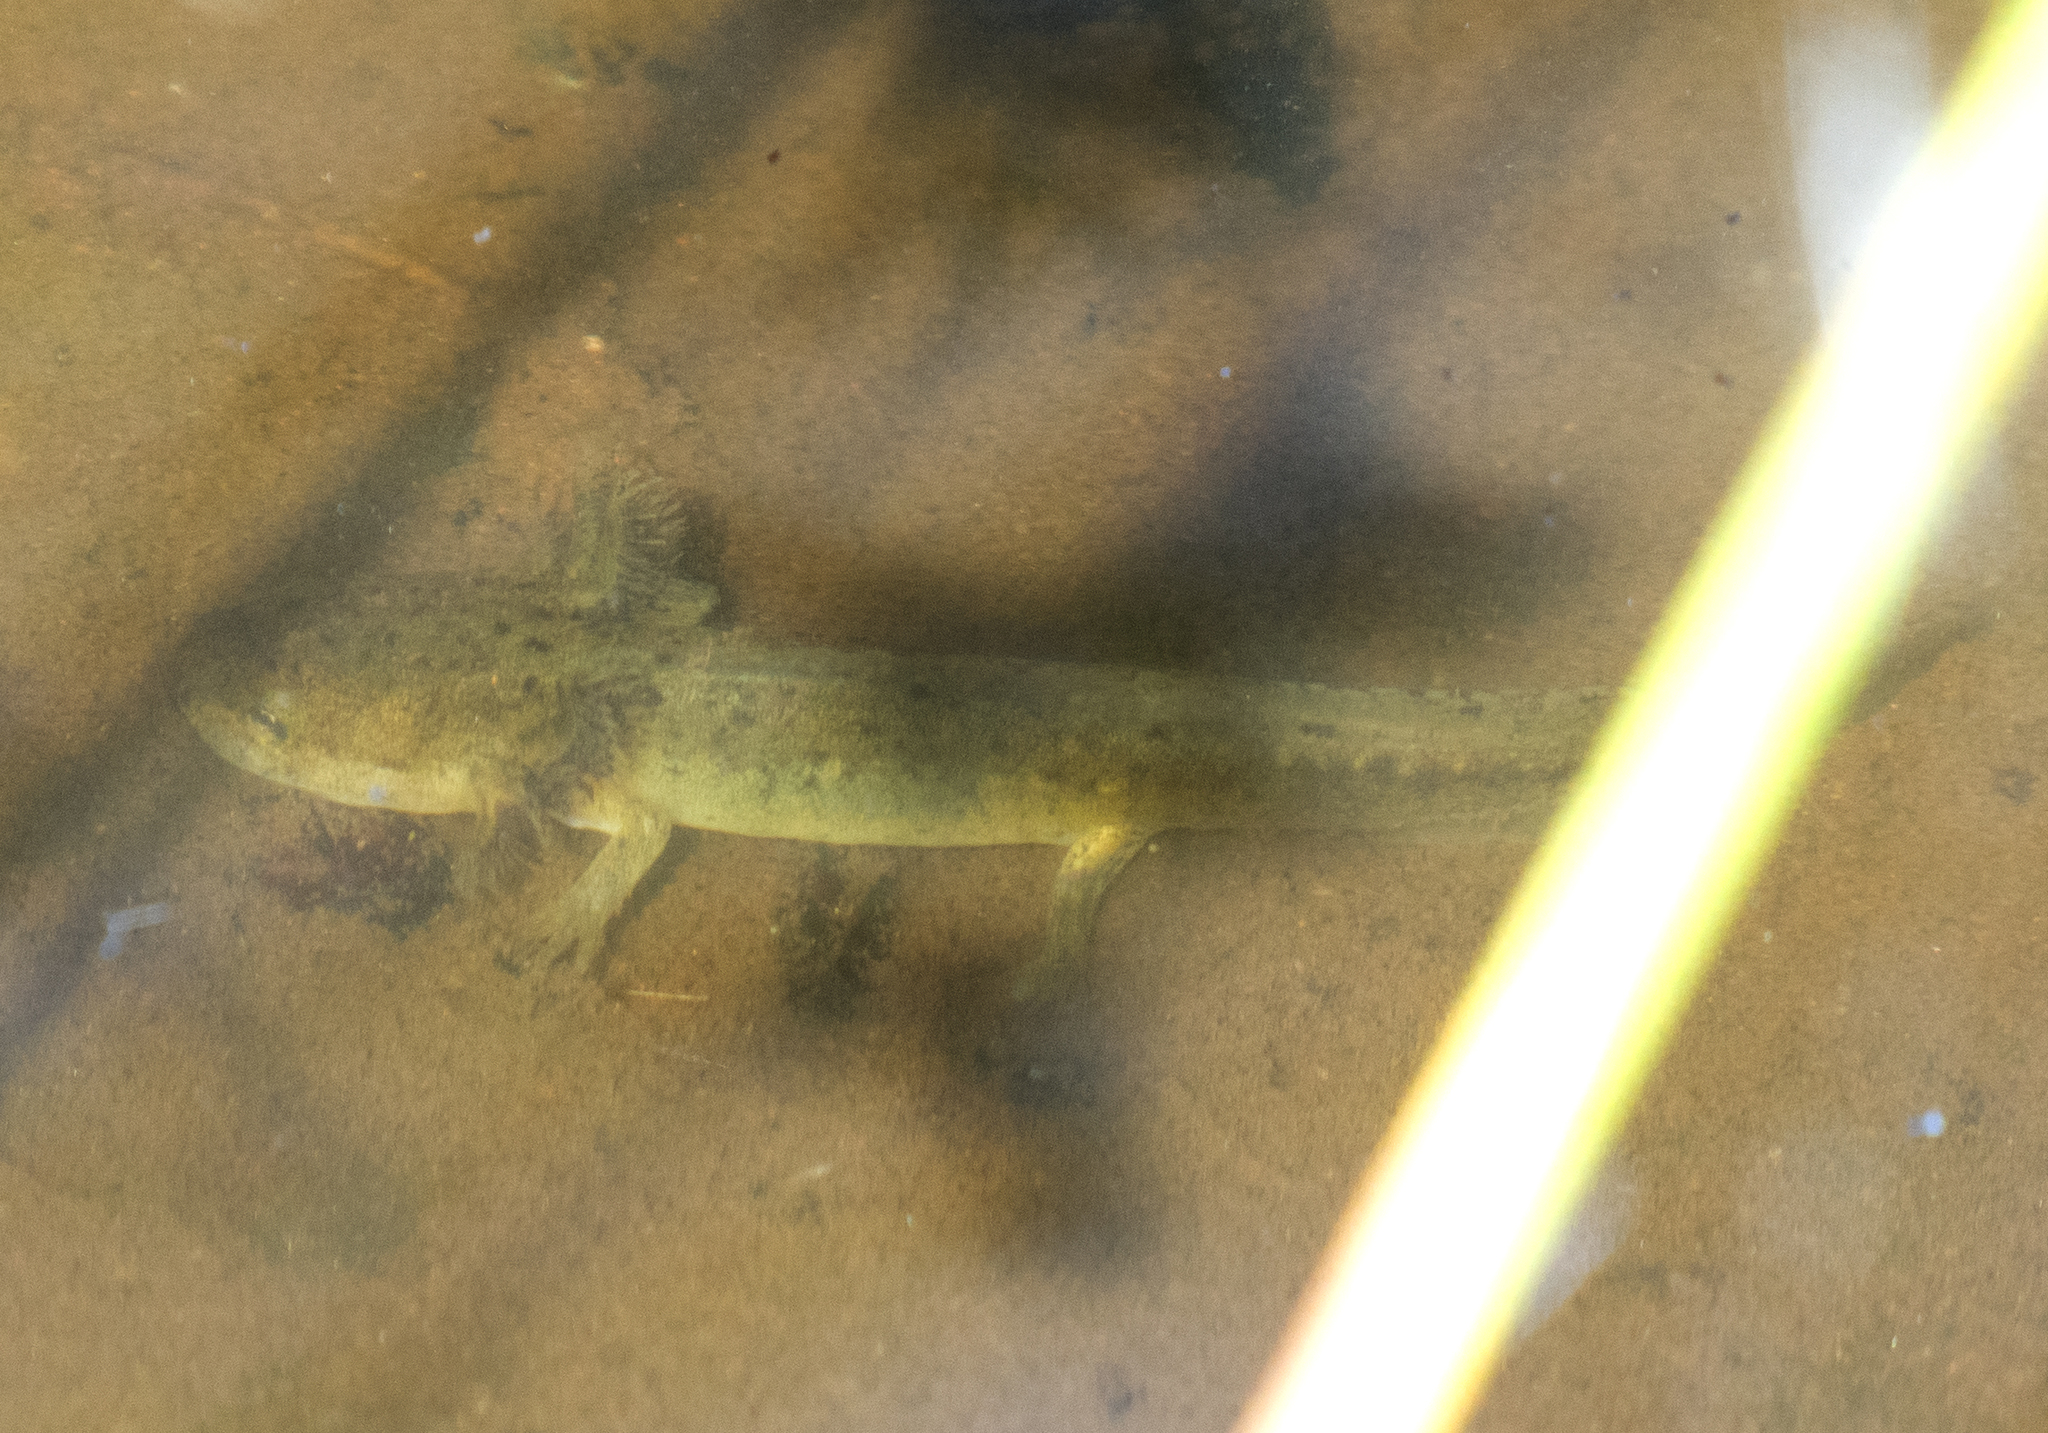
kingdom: Animalia
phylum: Chordata
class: Amphibia
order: Caudata
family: Ambystomatidae
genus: Ambystoma
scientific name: Ambystoma gracile
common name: Northwestern salamander
